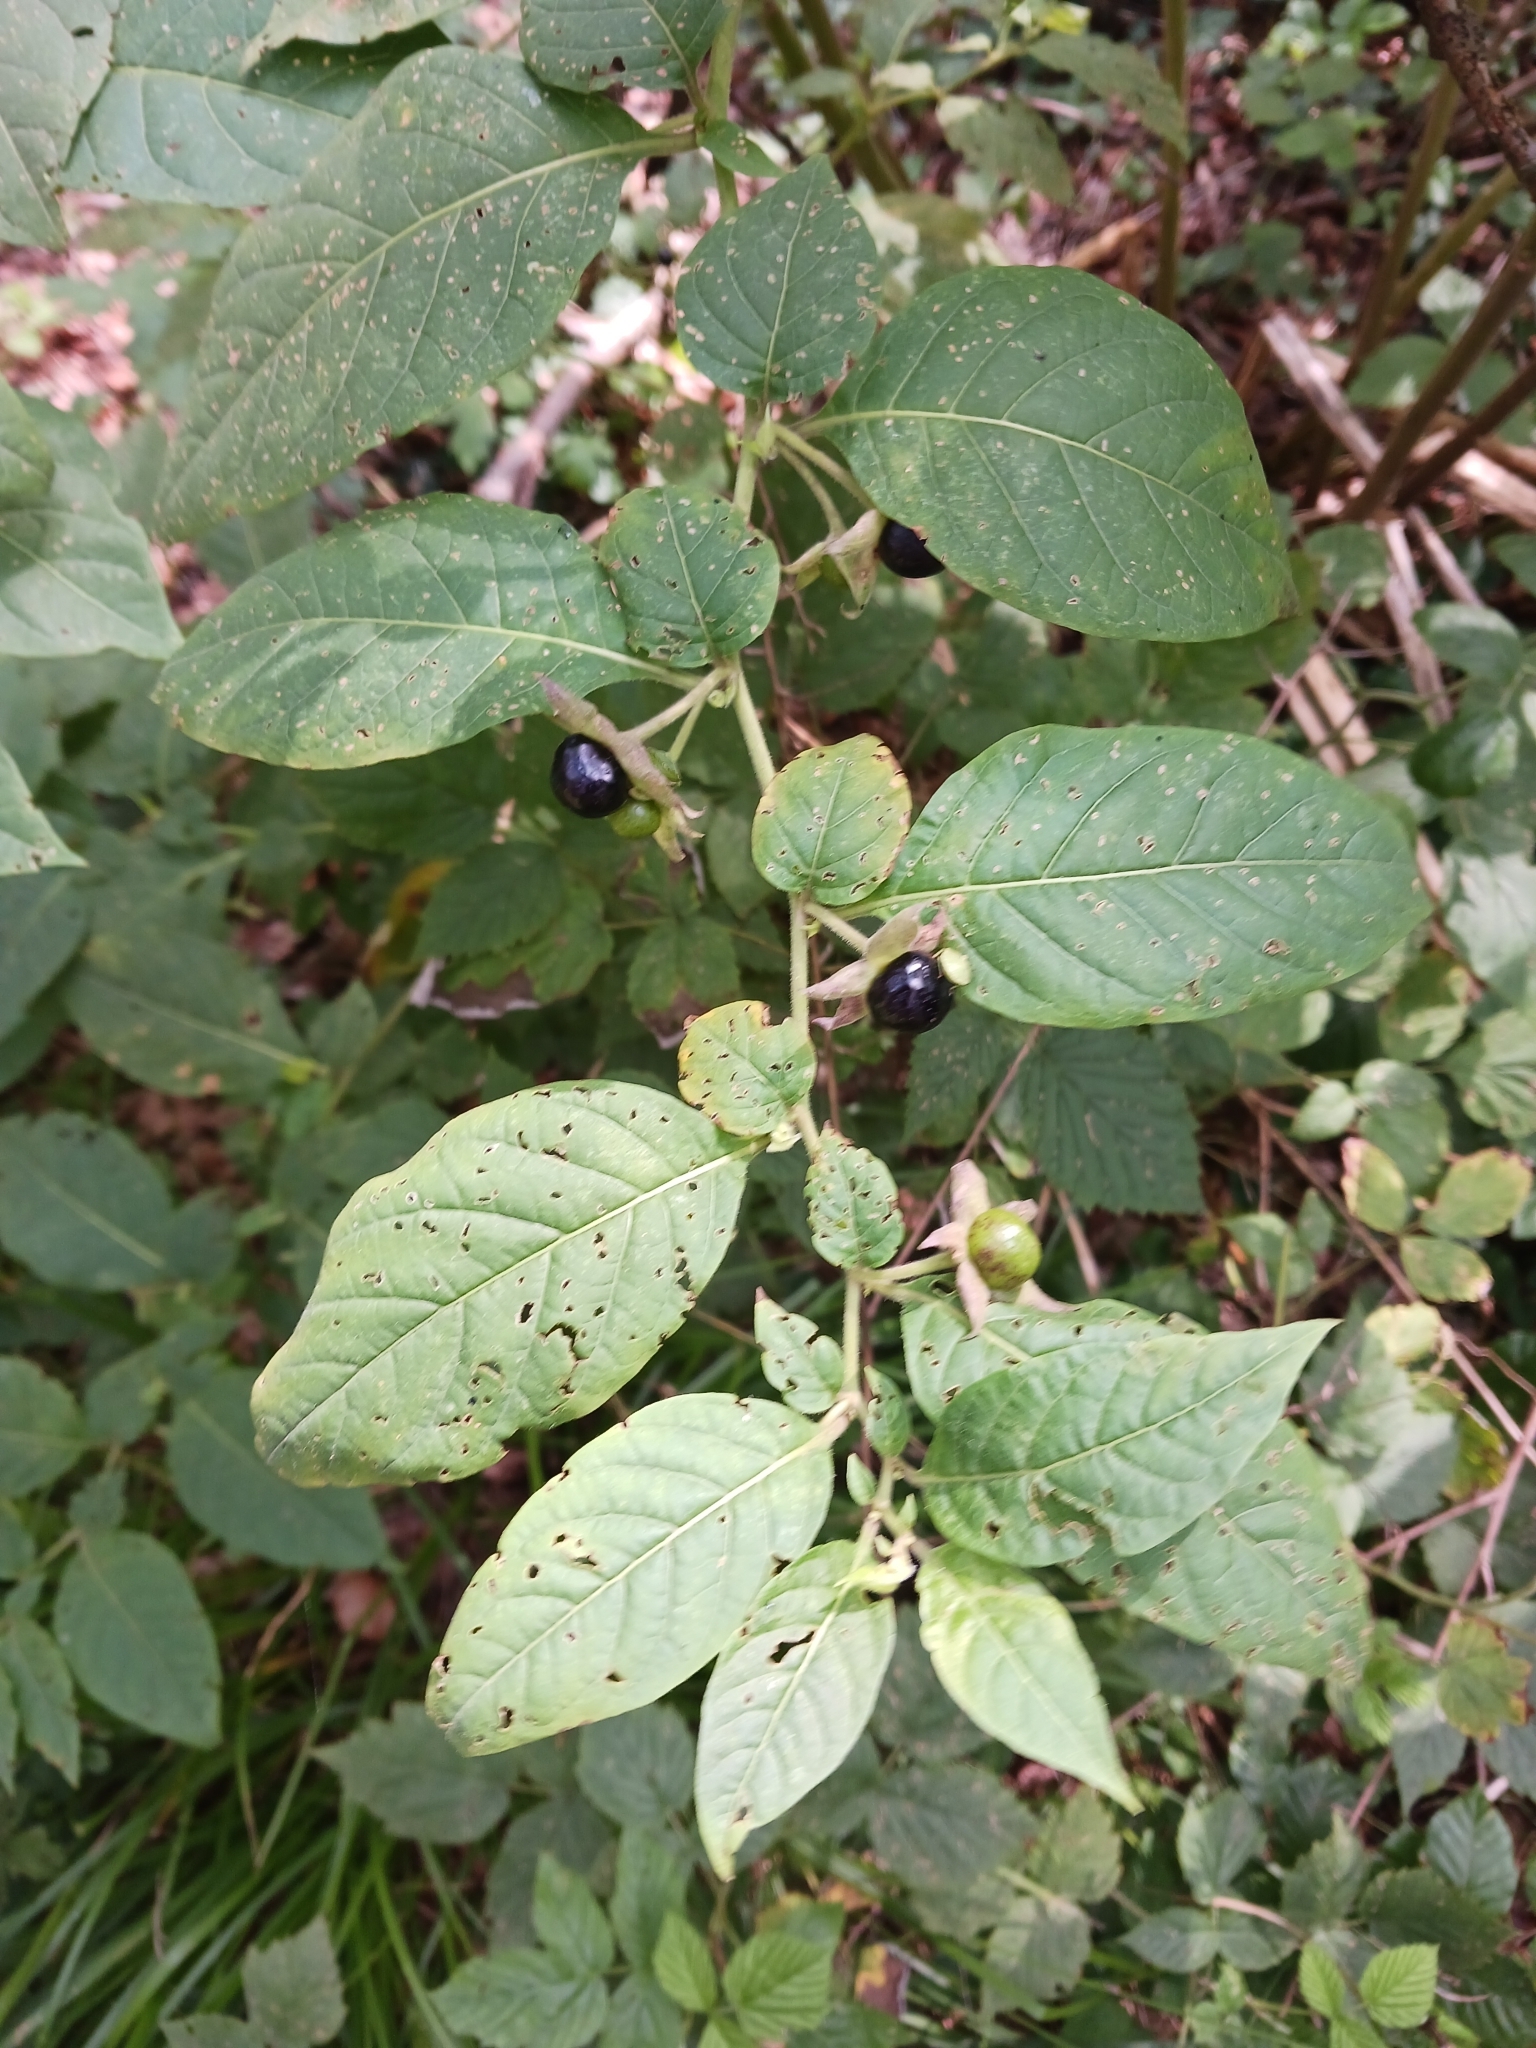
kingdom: Plantae
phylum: Tracheophyta
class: Magnoliopsida
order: Solanales
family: Solanaceae
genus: Atropa
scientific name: Atropa belladonna
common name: Deadly nightshade
